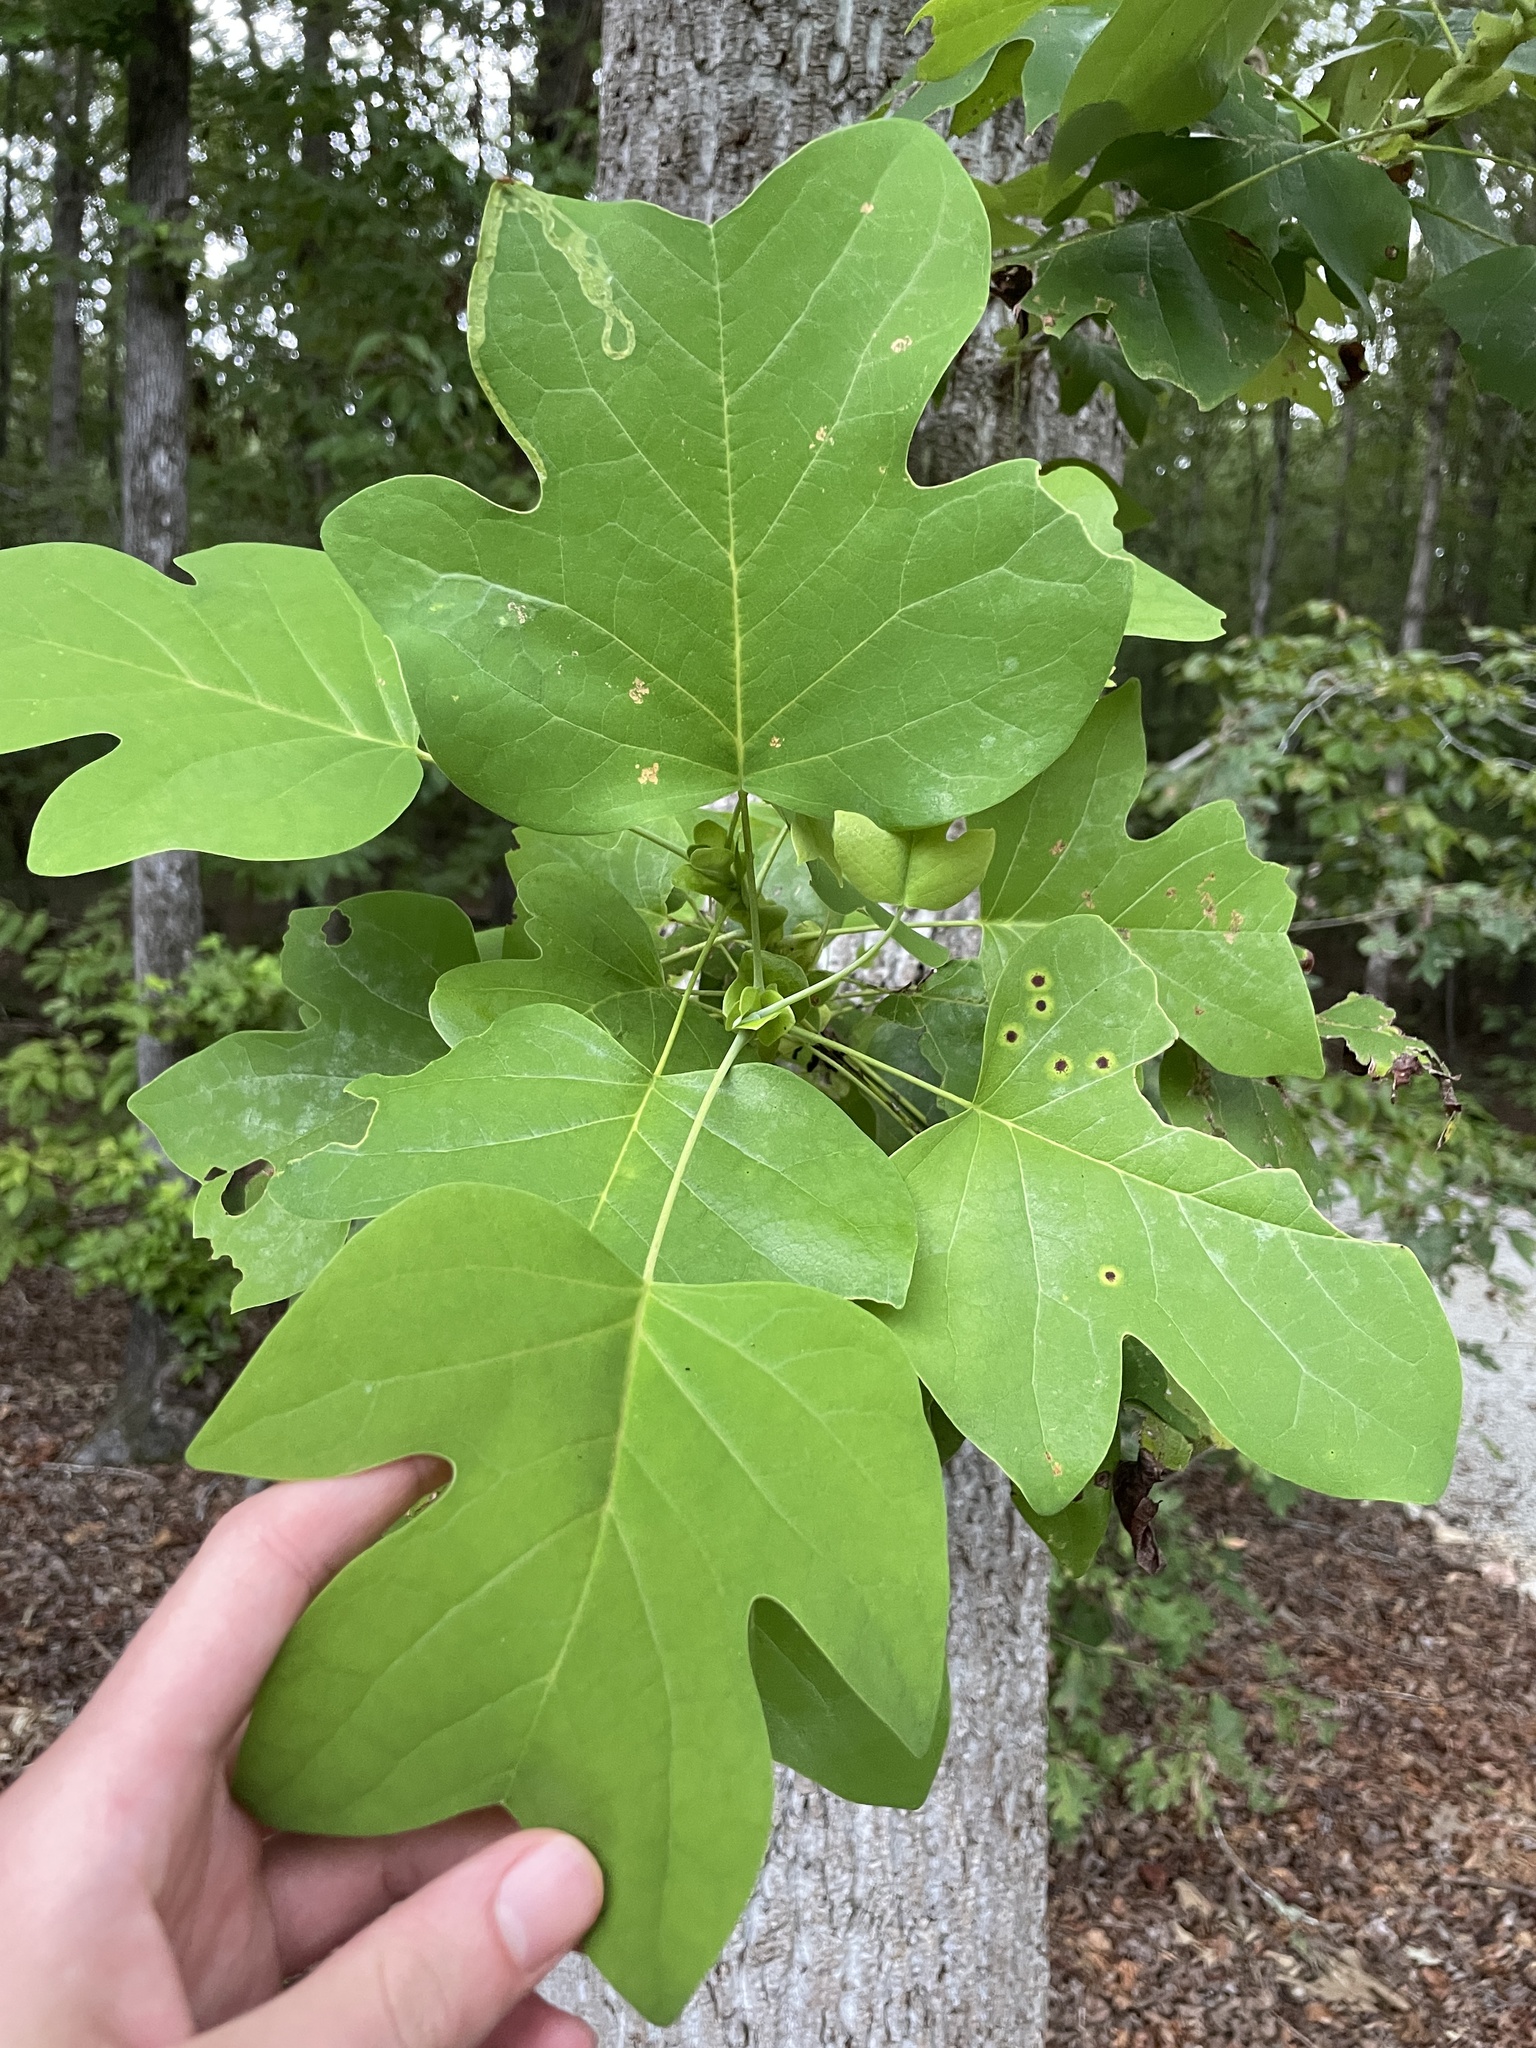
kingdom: Plantae
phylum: Tracheophyta
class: Magnoliopsida
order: Magnoliales
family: Magnoliaceae
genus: Liriodendron
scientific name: Liriodendron tulipifera
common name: Tulip tree
